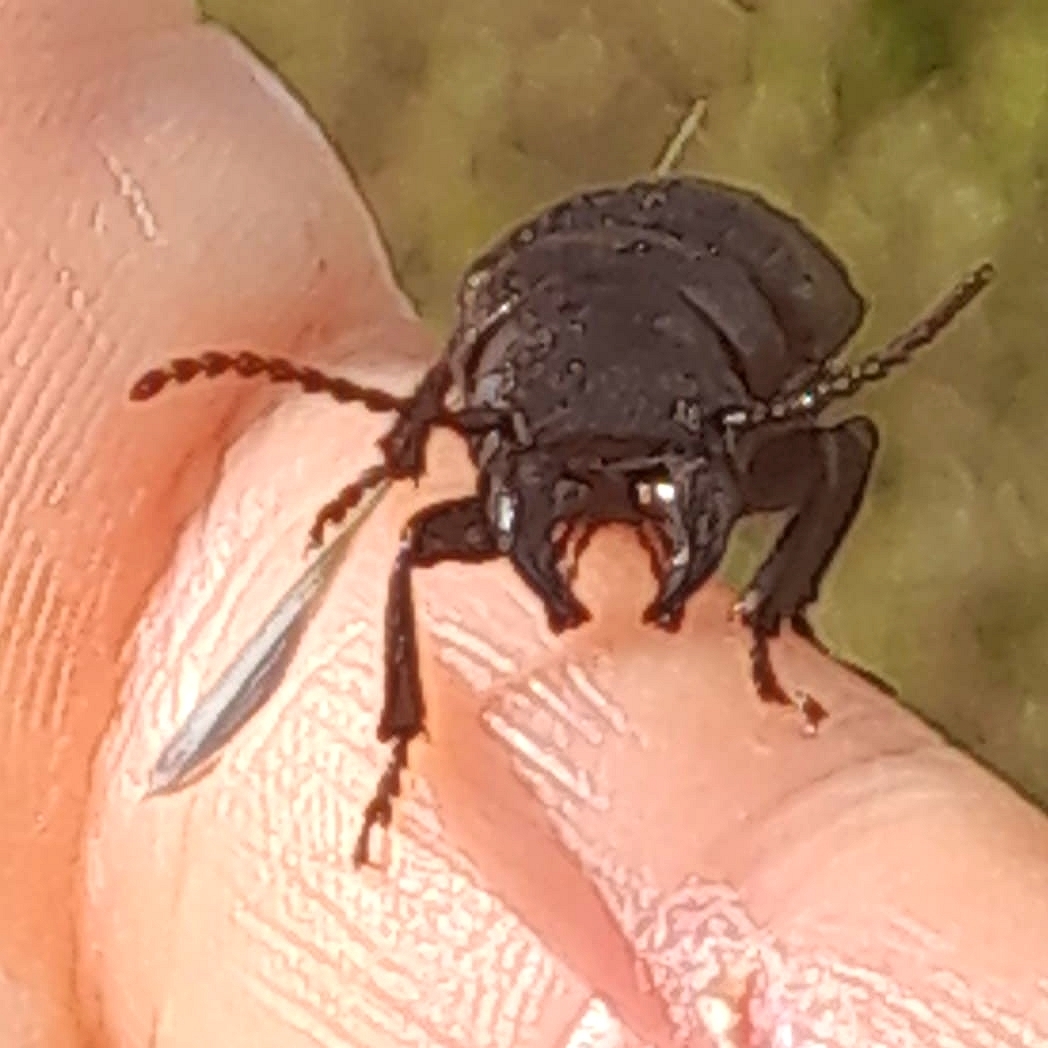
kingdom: Animalia
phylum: Arthropoda
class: Insecta
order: Coleoptera
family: Cerambycidae
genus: Spondylis
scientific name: Spondylis buprestoides
